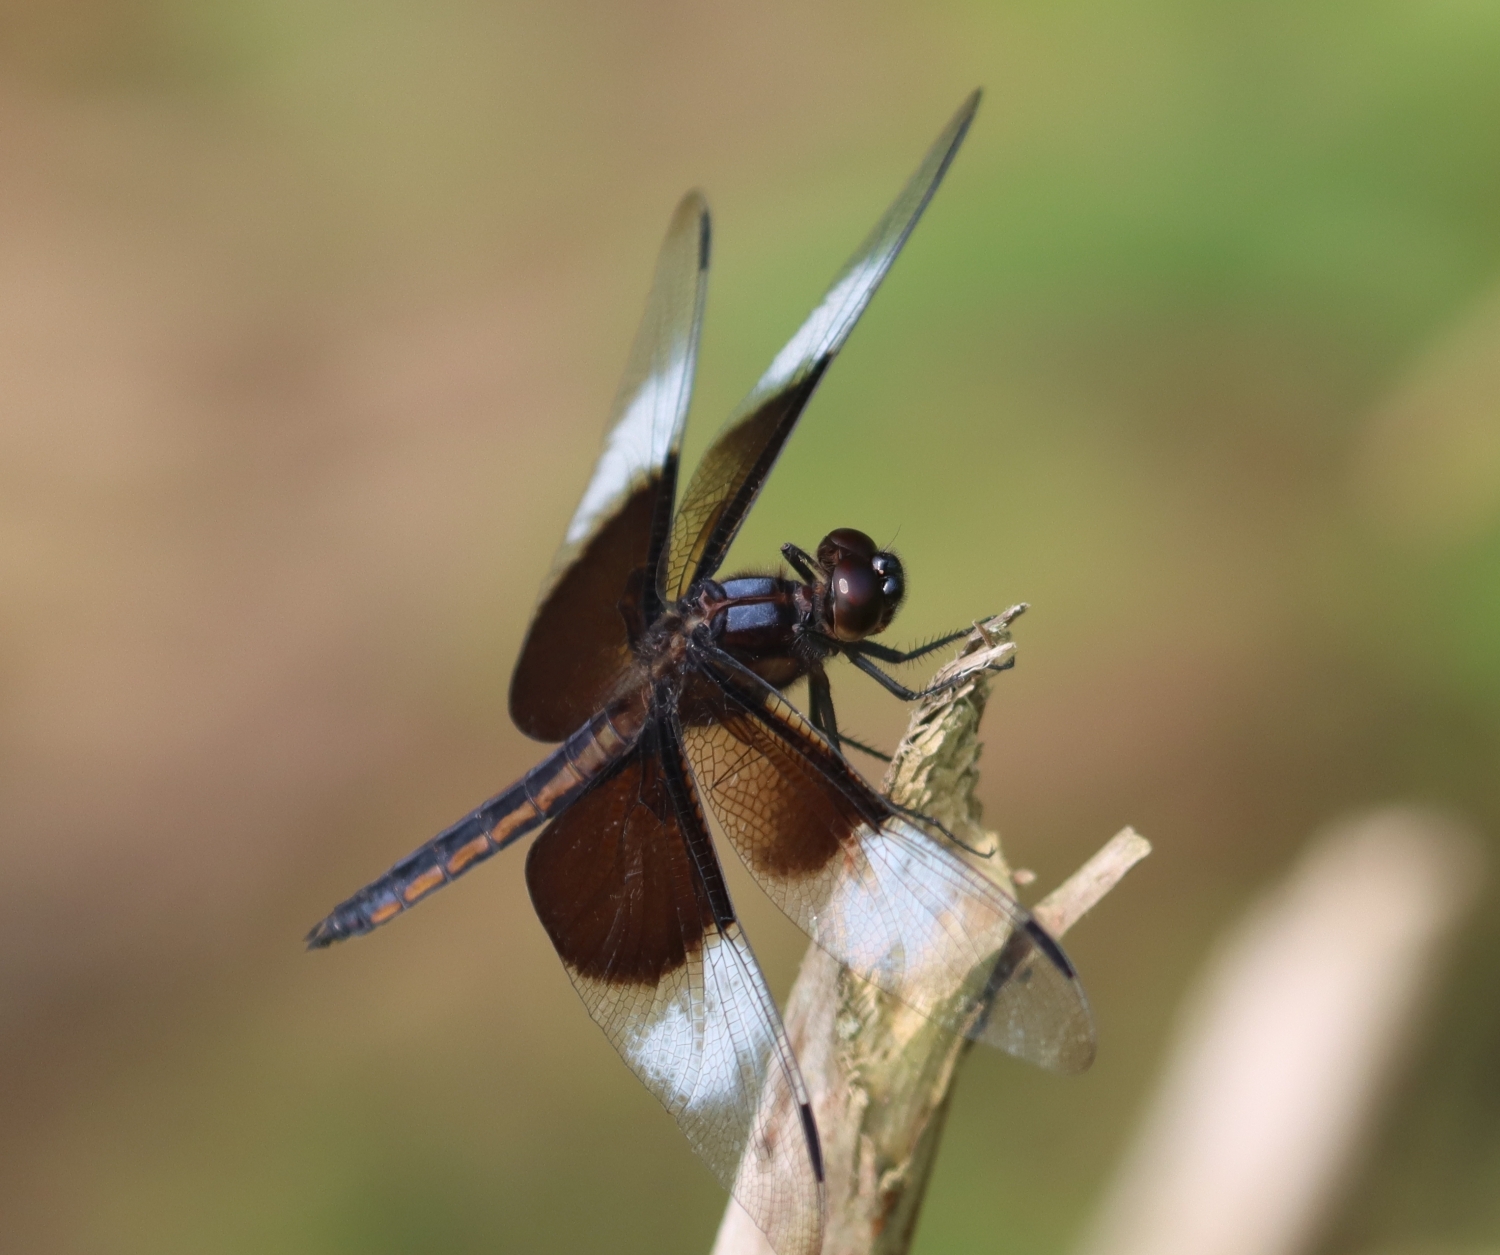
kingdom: Animalia
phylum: Arthropoda
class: Insecta
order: Odonata
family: Libellulidae
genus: Libellula
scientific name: Libellula luctuosa
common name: Widow skimmer
